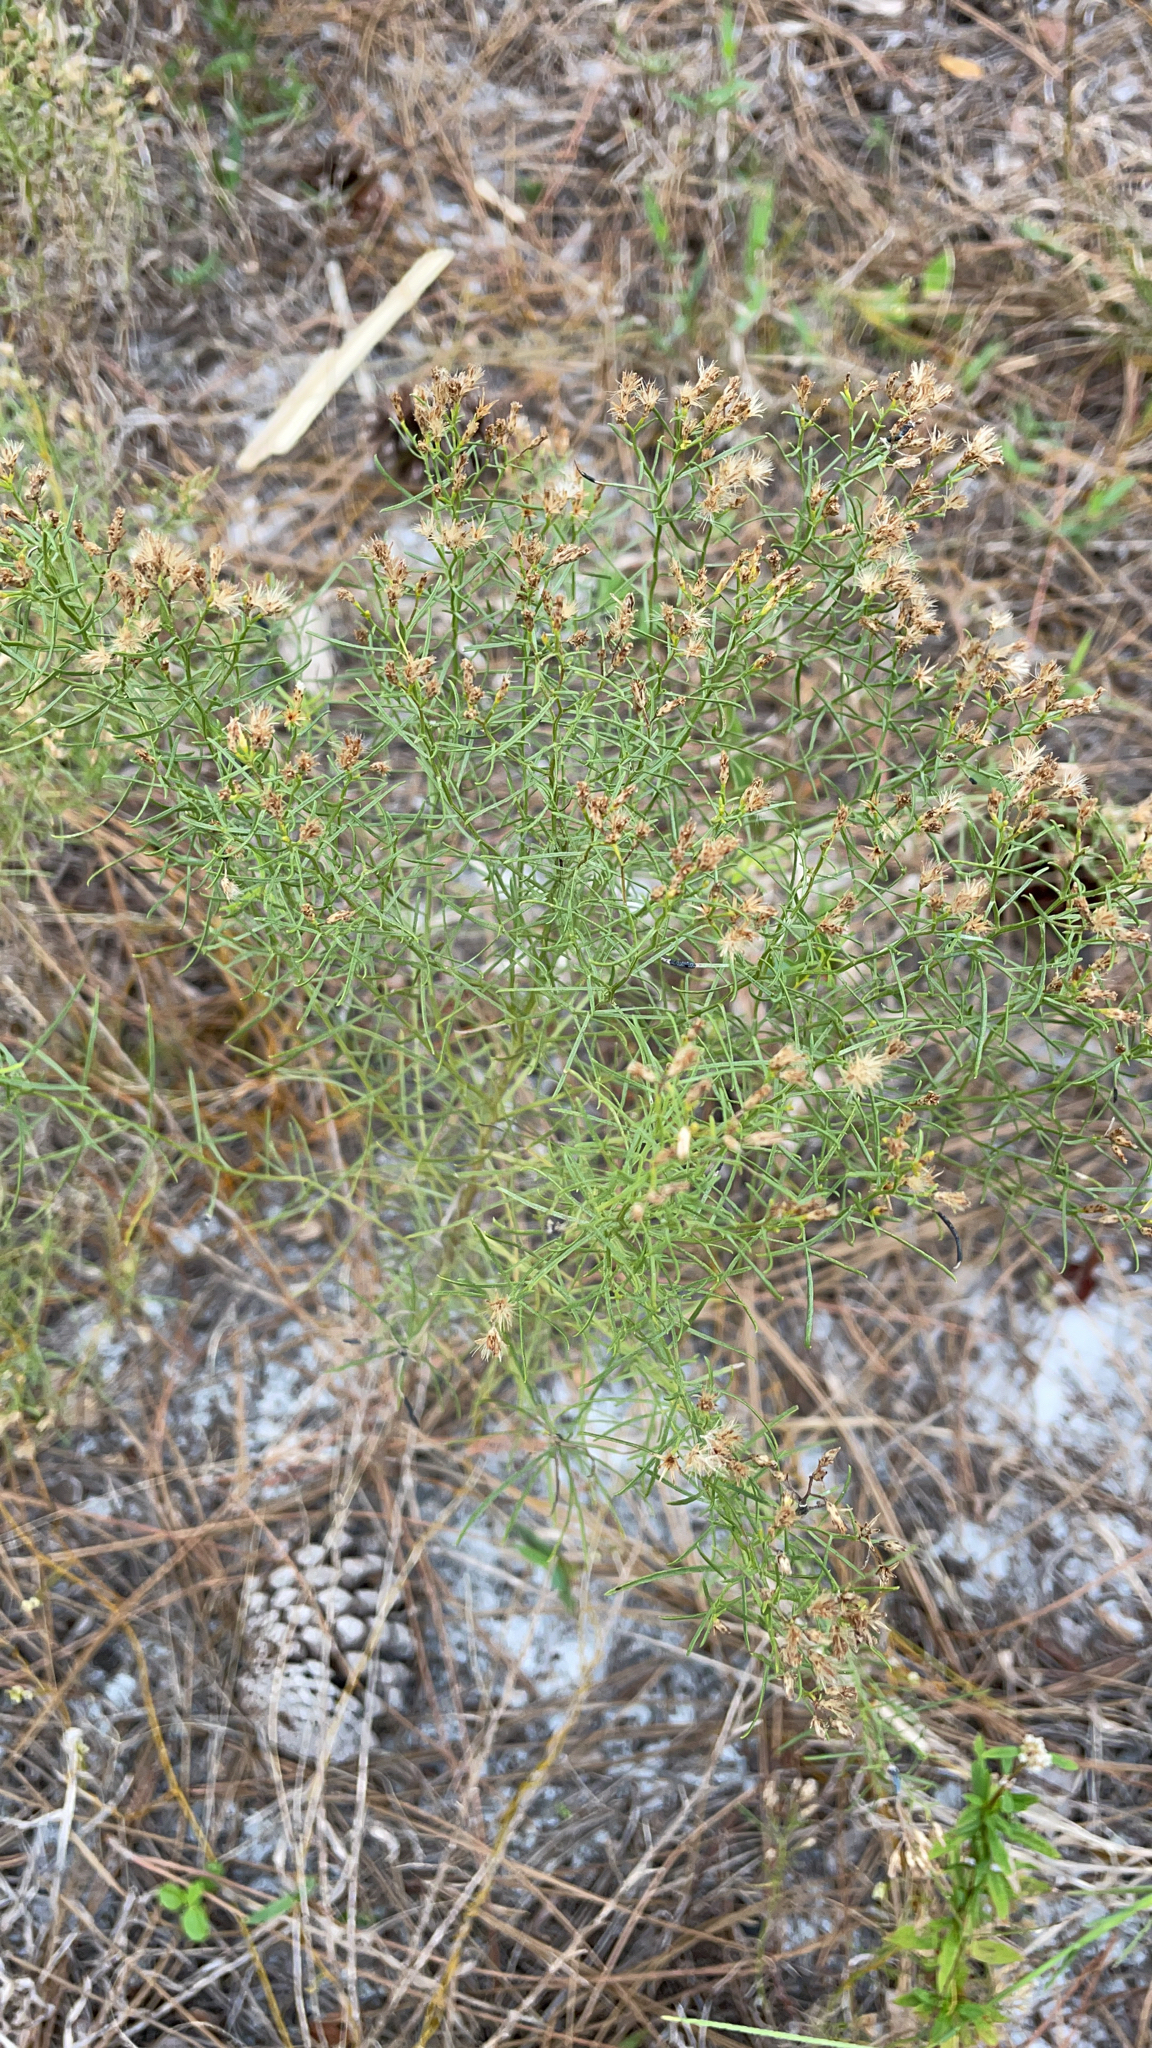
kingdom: Plantae
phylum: Tracheophyta
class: Magnoliopsida
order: Asterales
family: Asteraceae
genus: Euthamia
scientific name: Euthamia caroliniana
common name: Coastal plain goldentop
